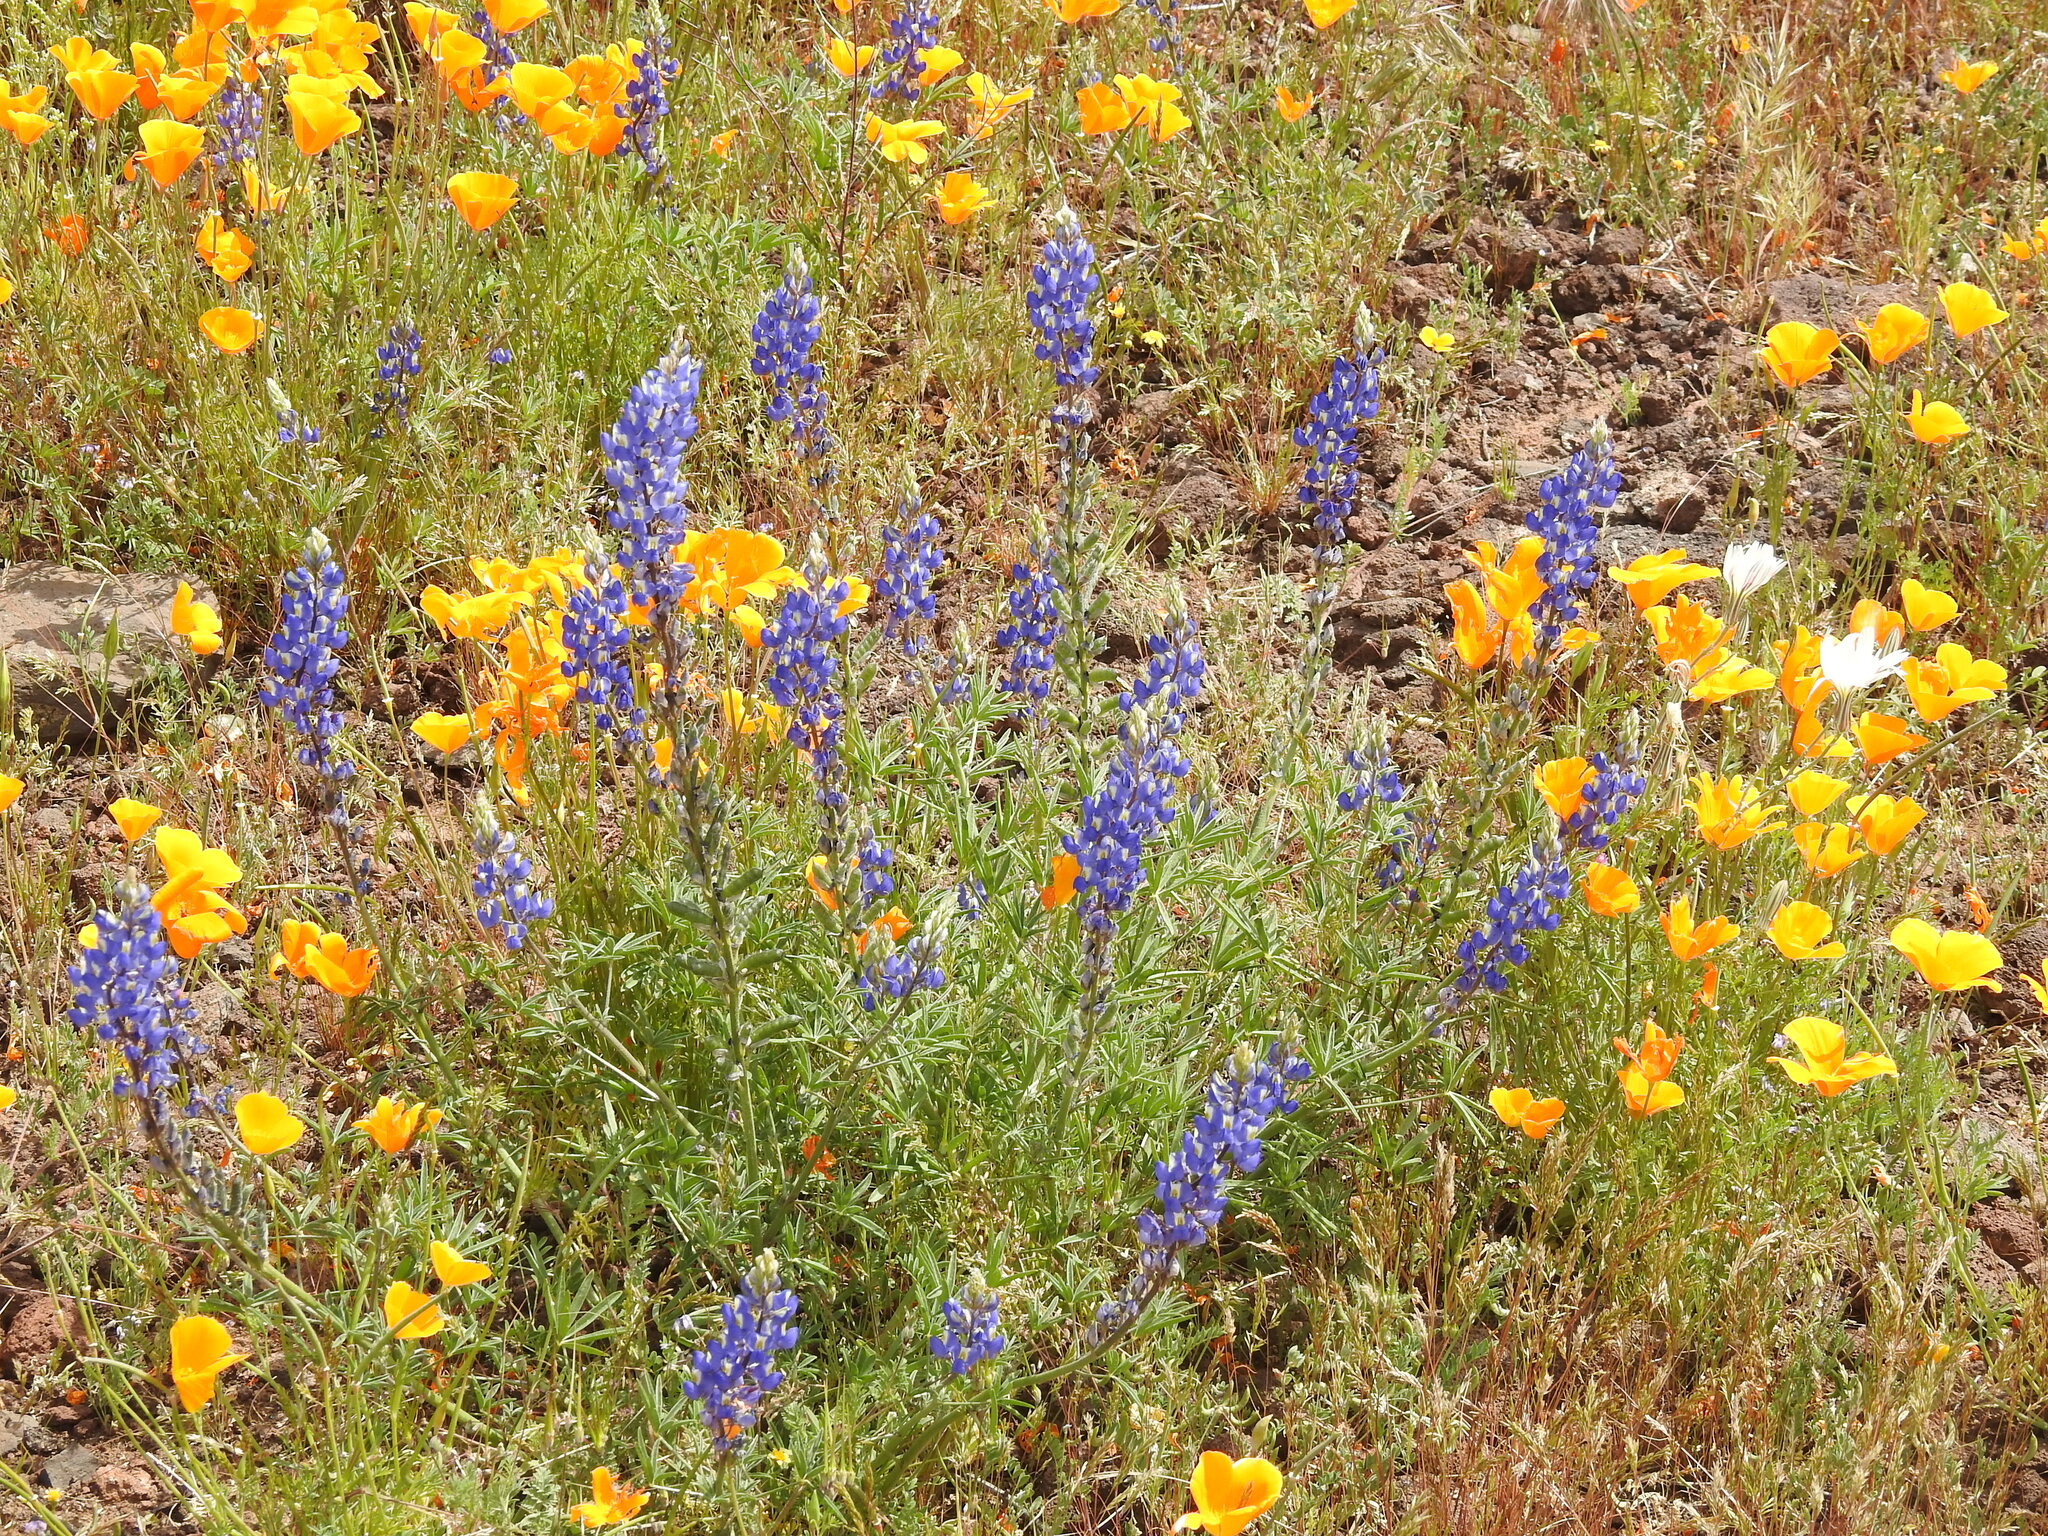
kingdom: Plantae
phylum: Tracheophyta
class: Magnoliopsida
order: Fabales
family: Fabaceae
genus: Lupinus
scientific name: Lupinus sparsiflorus
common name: Coulter's lupine
